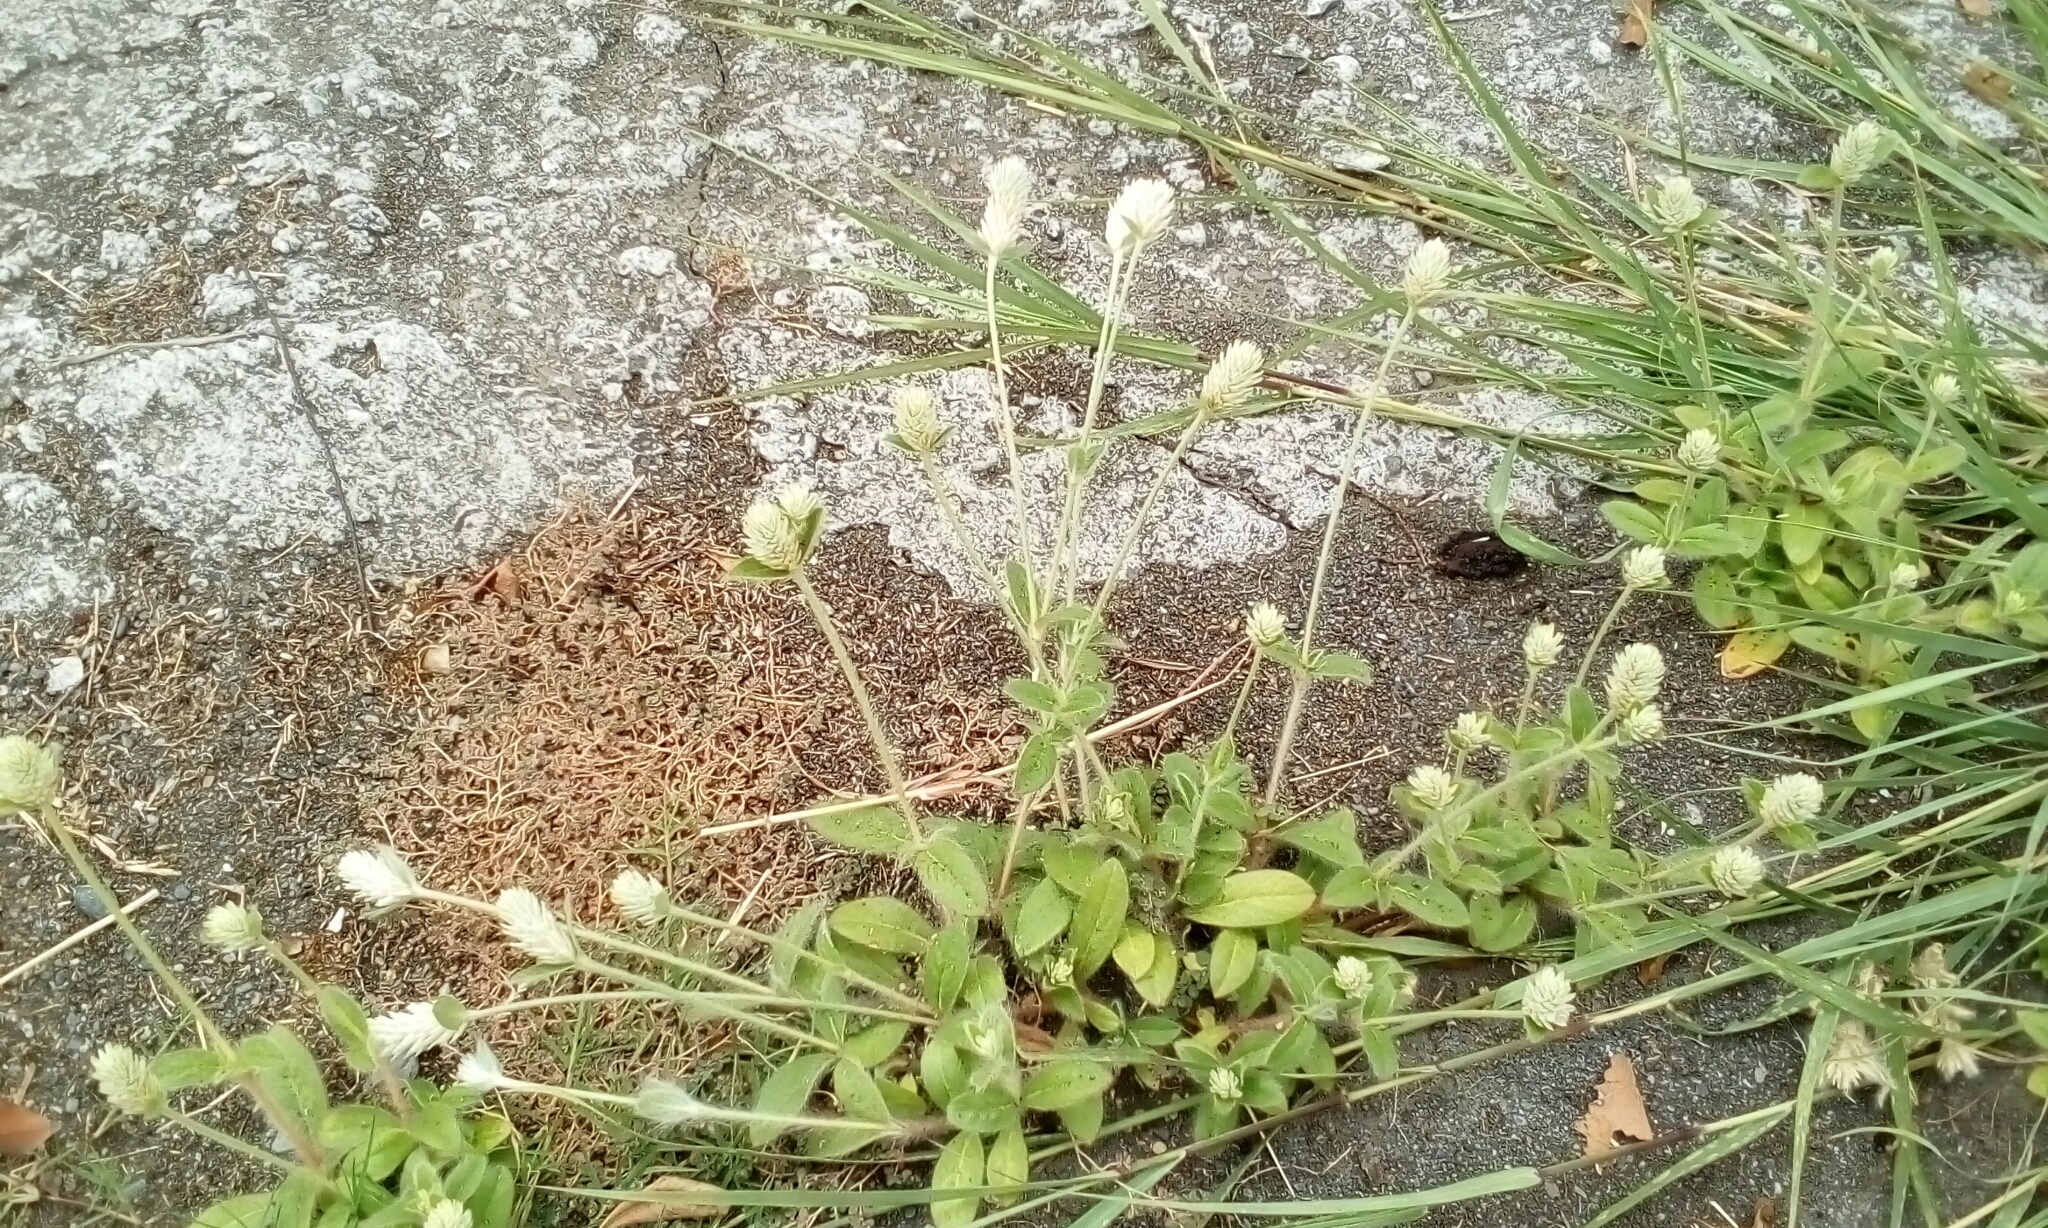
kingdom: Plantae
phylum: Tracheophyta
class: Magnoliopsida
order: Caryophyllales
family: Amaranthaceae
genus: Gomphrena
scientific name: Gomphrena celosioides
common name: Gomphrena-weed
